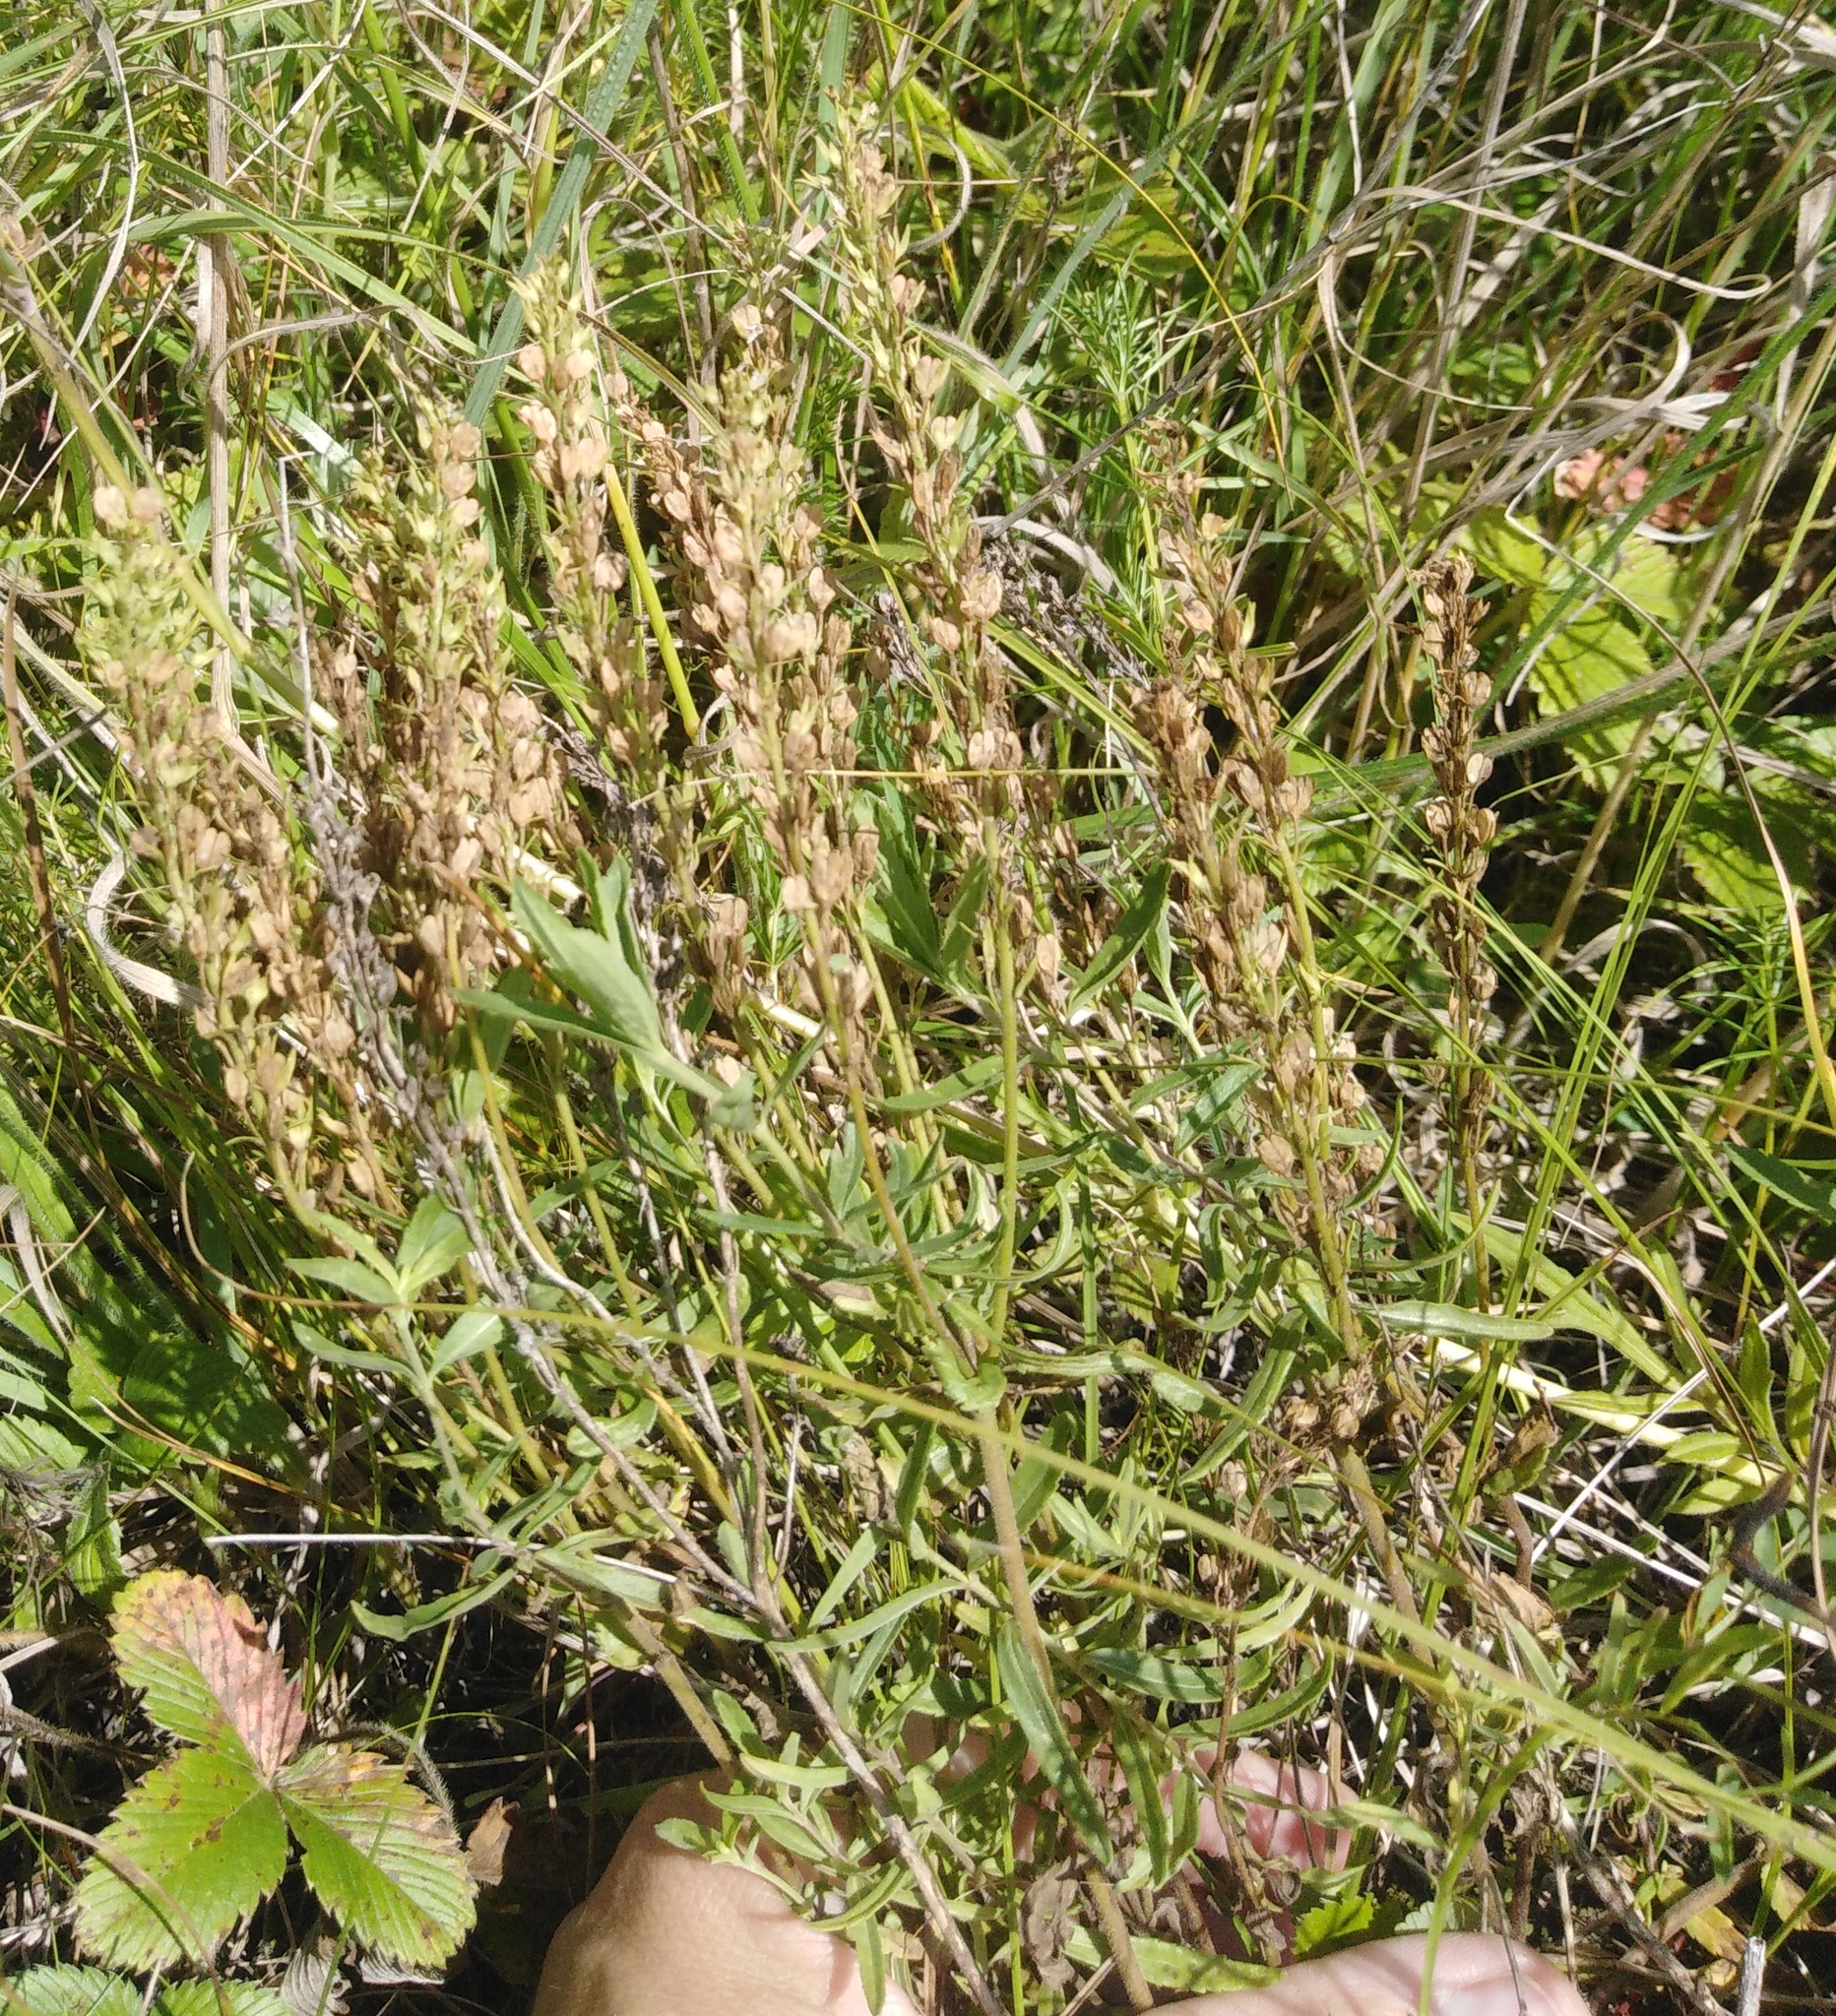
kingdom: Plantae
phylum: Tracheophyta
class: Magnoliopsida
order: Lamiales
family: Plantaginaceae
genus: Veronica
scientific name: Veronica prostrata
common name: Prostrate speedwell
